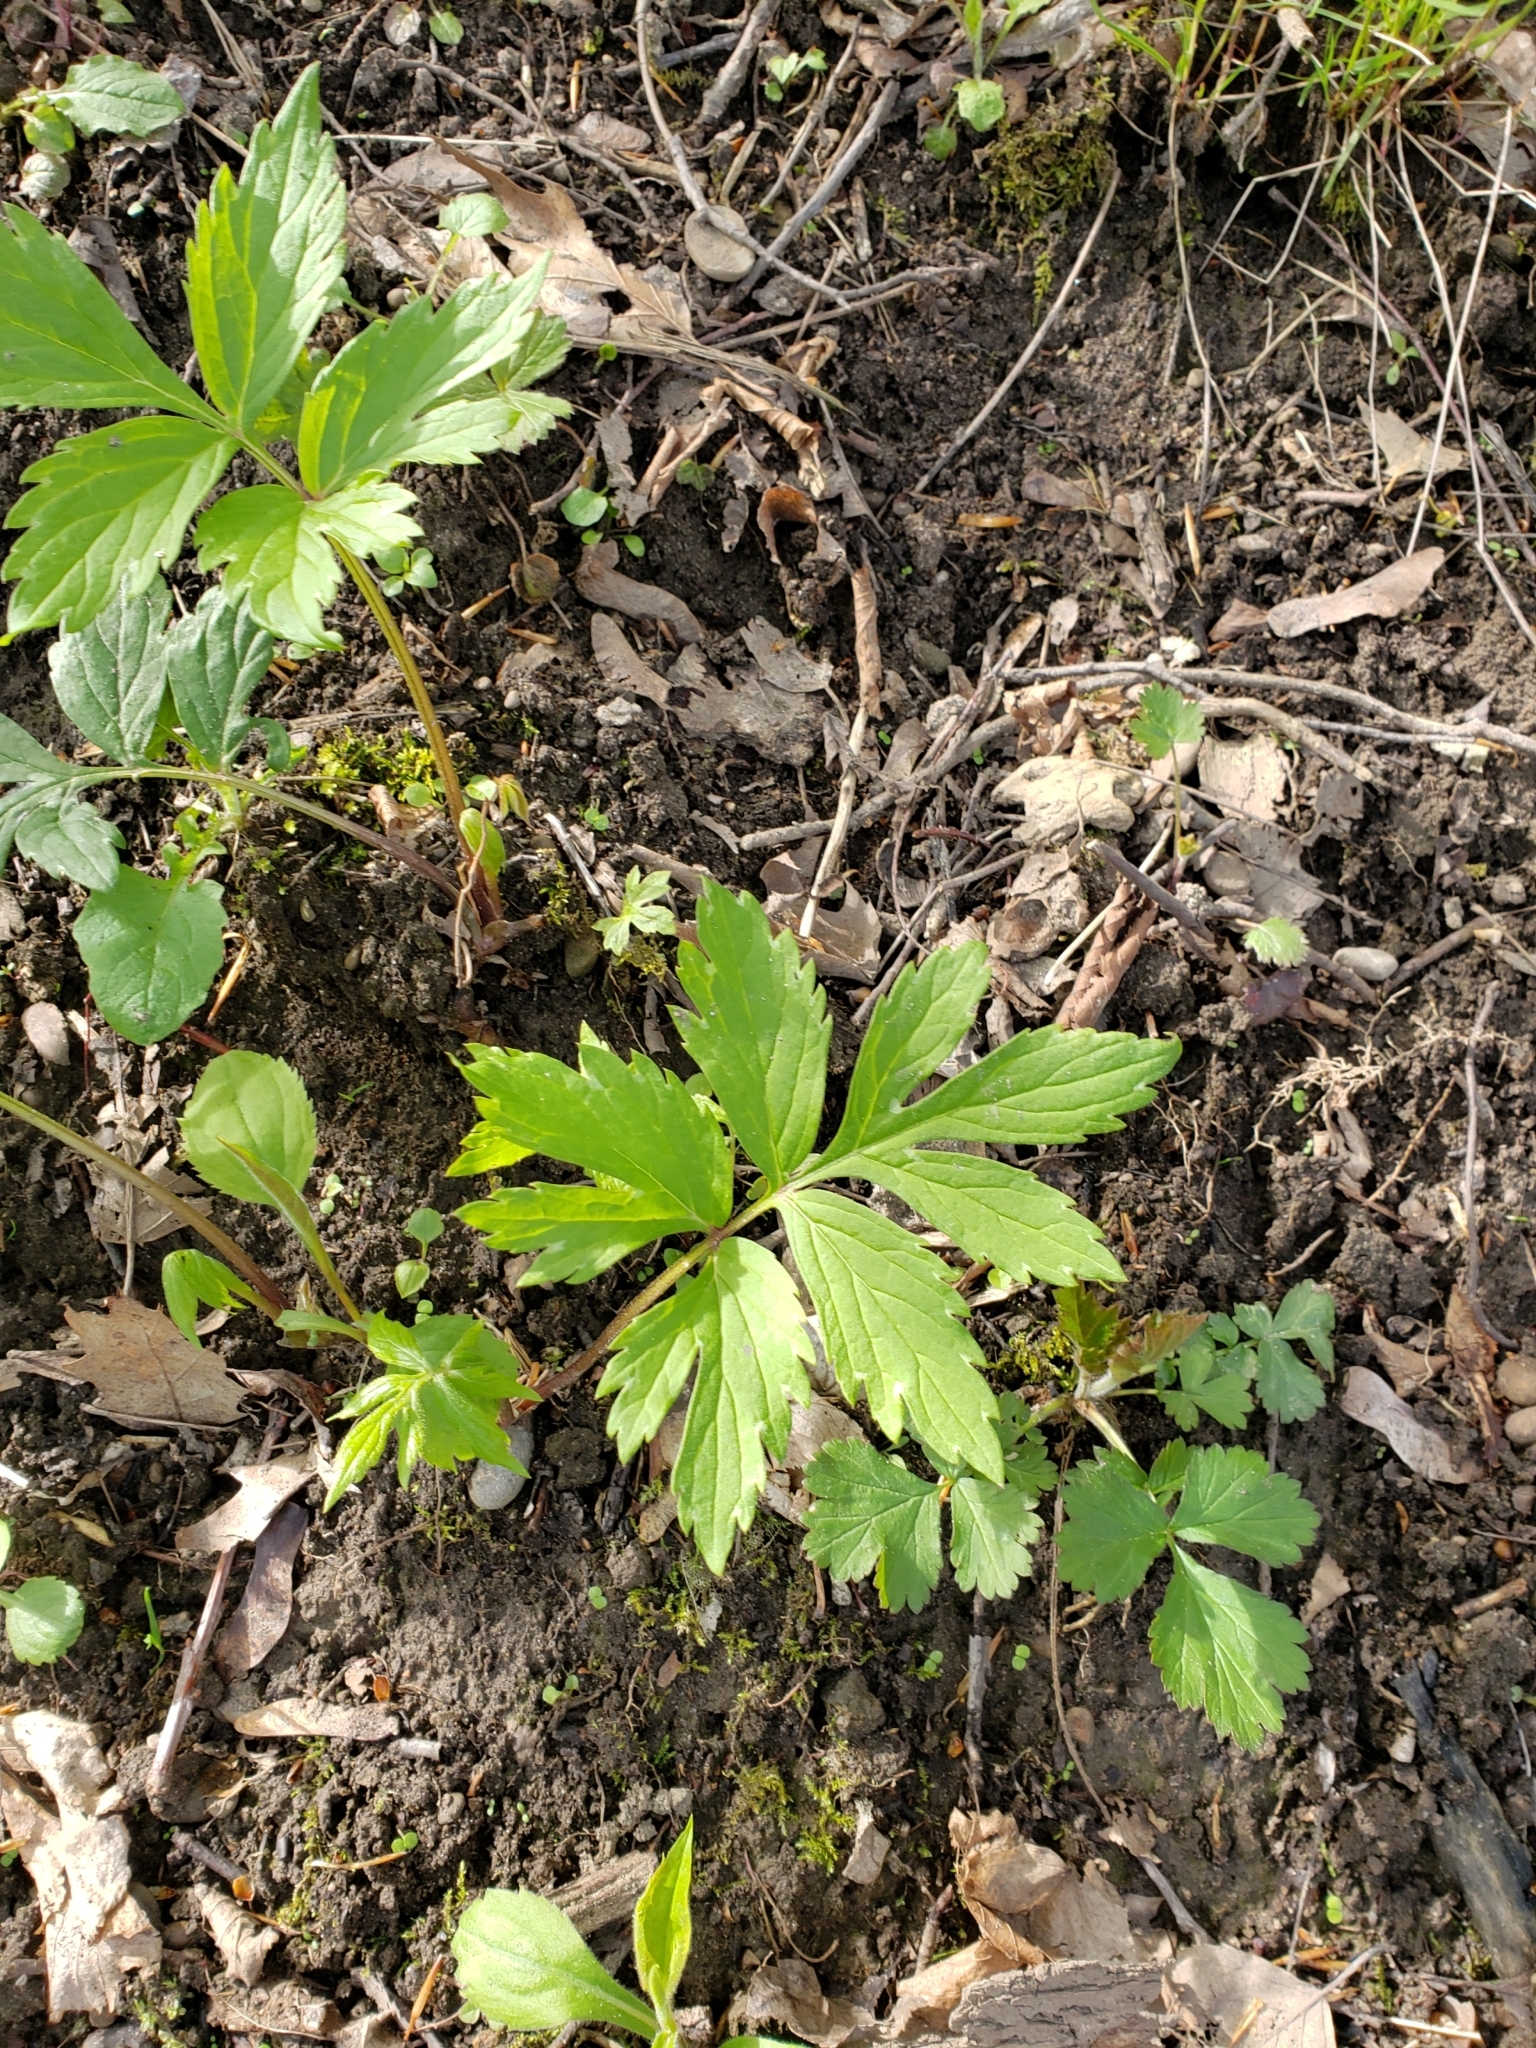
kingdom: Plantae
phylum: Tracheophyta
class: Magnoliopsida
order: Boraginales
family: Hydrophyllaceae
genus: Hydrophyllum
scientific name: Hydrophyllum virginianum
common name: Virginia waterleaf
